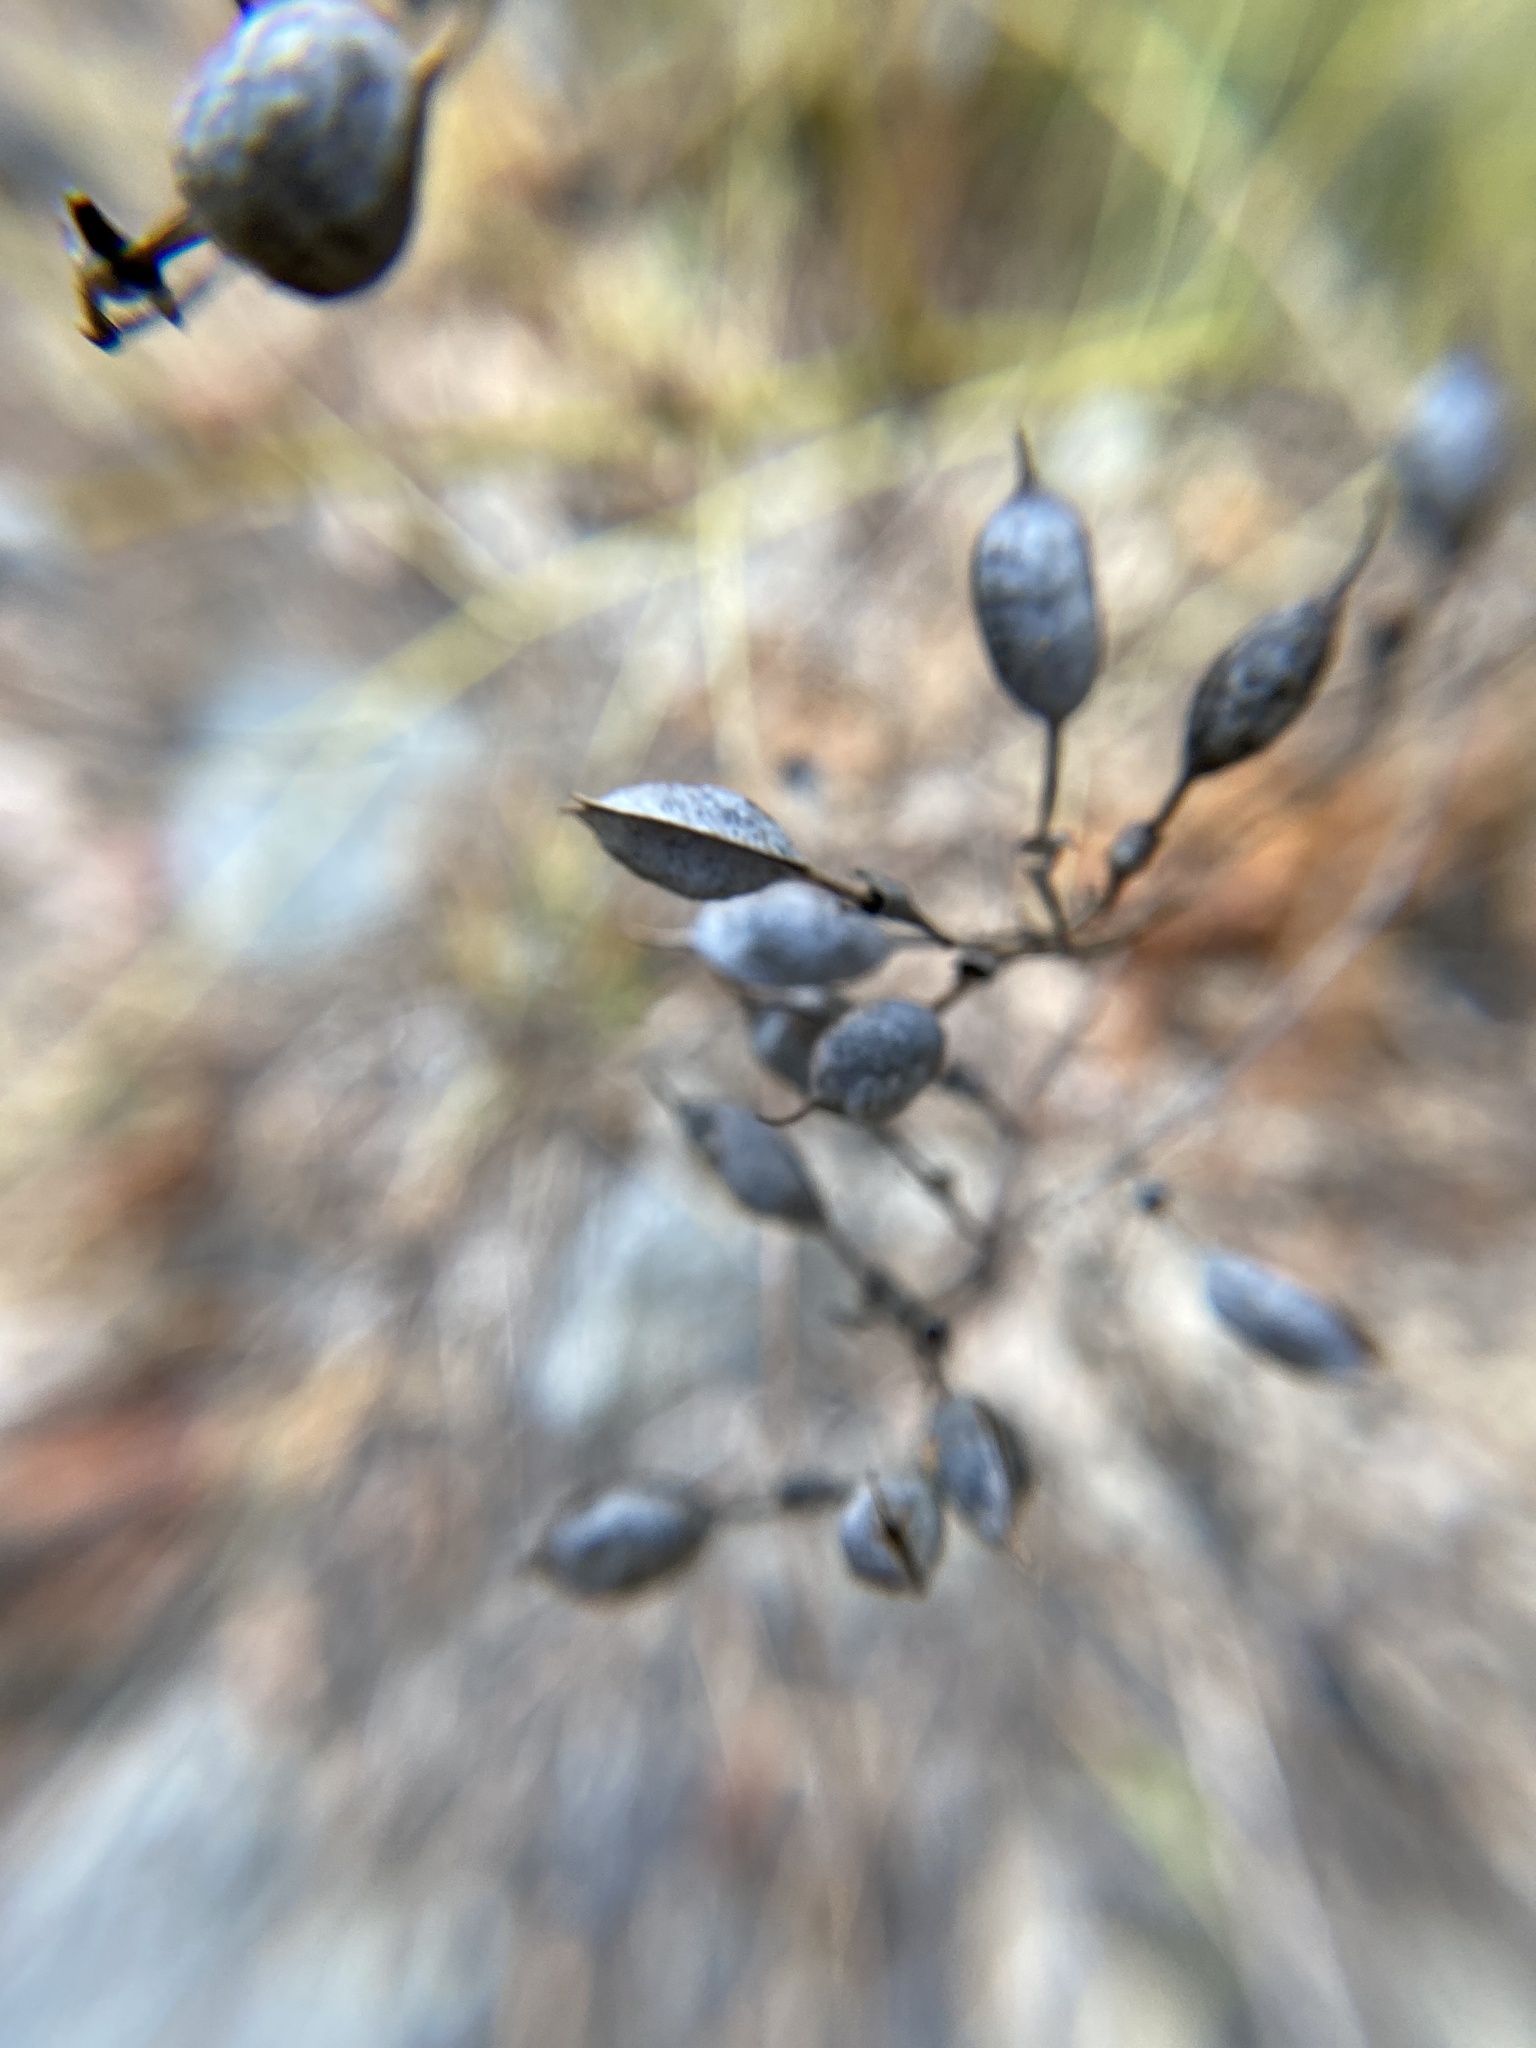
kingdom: Plantae
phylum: Tracheophyta
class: Magnoliopsida
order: Fabales
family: Fabaceae
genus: Baptisia
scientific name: Baptisia tinctoria
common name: Wild indigo
